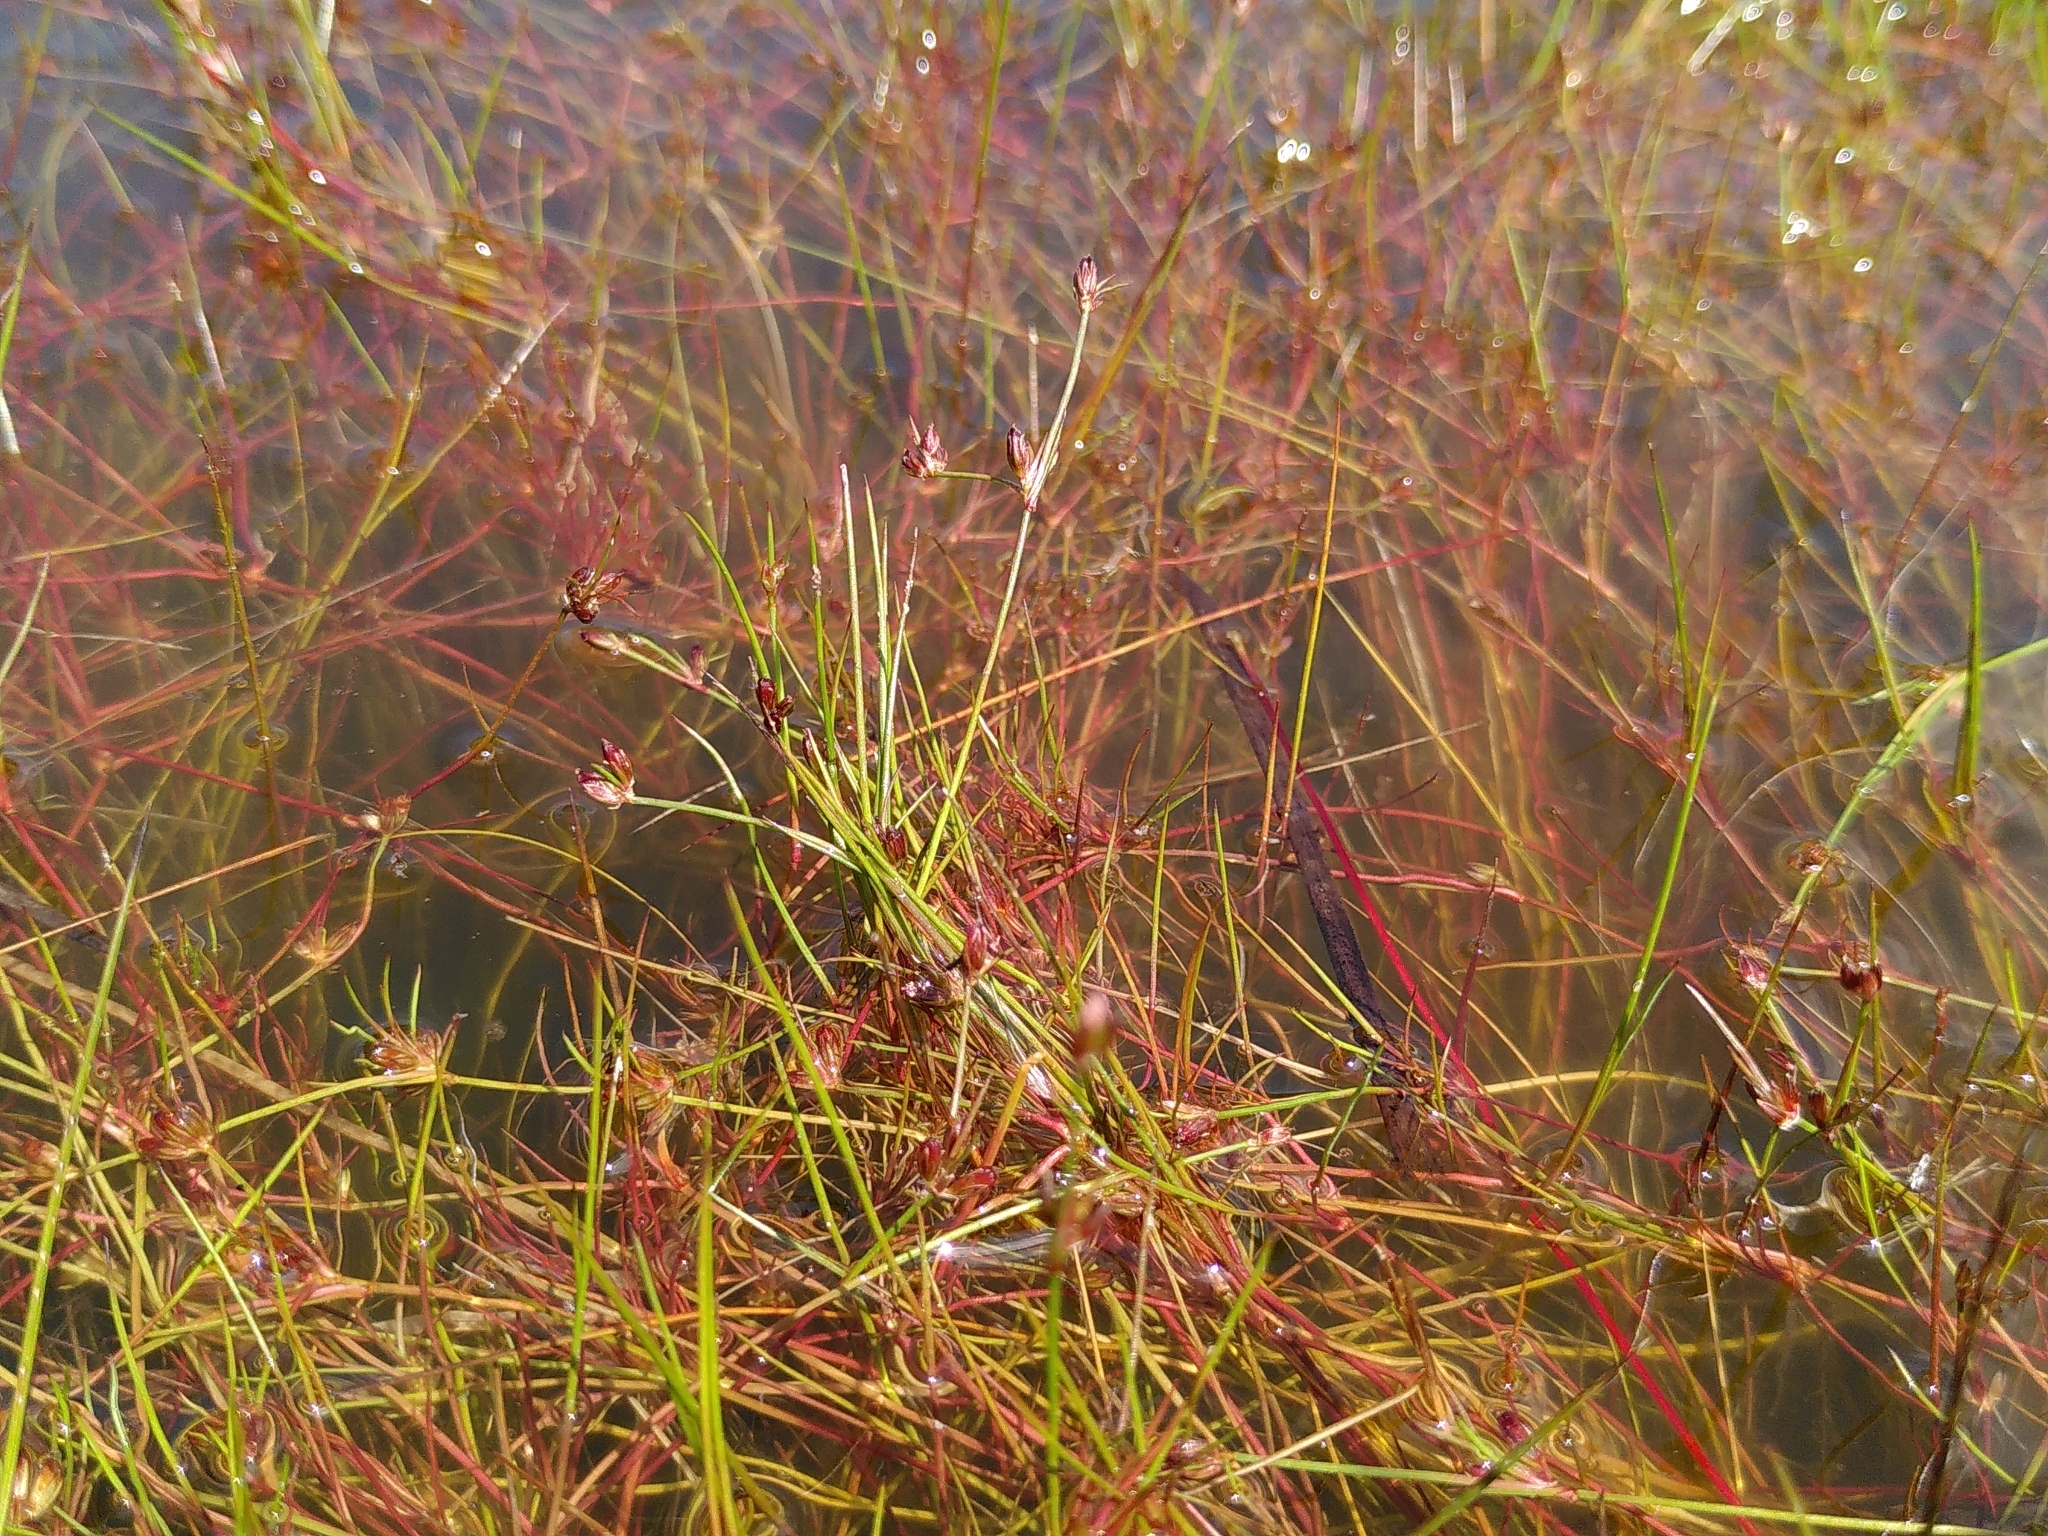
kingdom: Plantae
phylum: Tracheophyta
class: Liliopsida
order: Poales
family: Juncaceae
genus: Juncus
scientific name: Juncus bulbosus
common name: Bulbous rush
